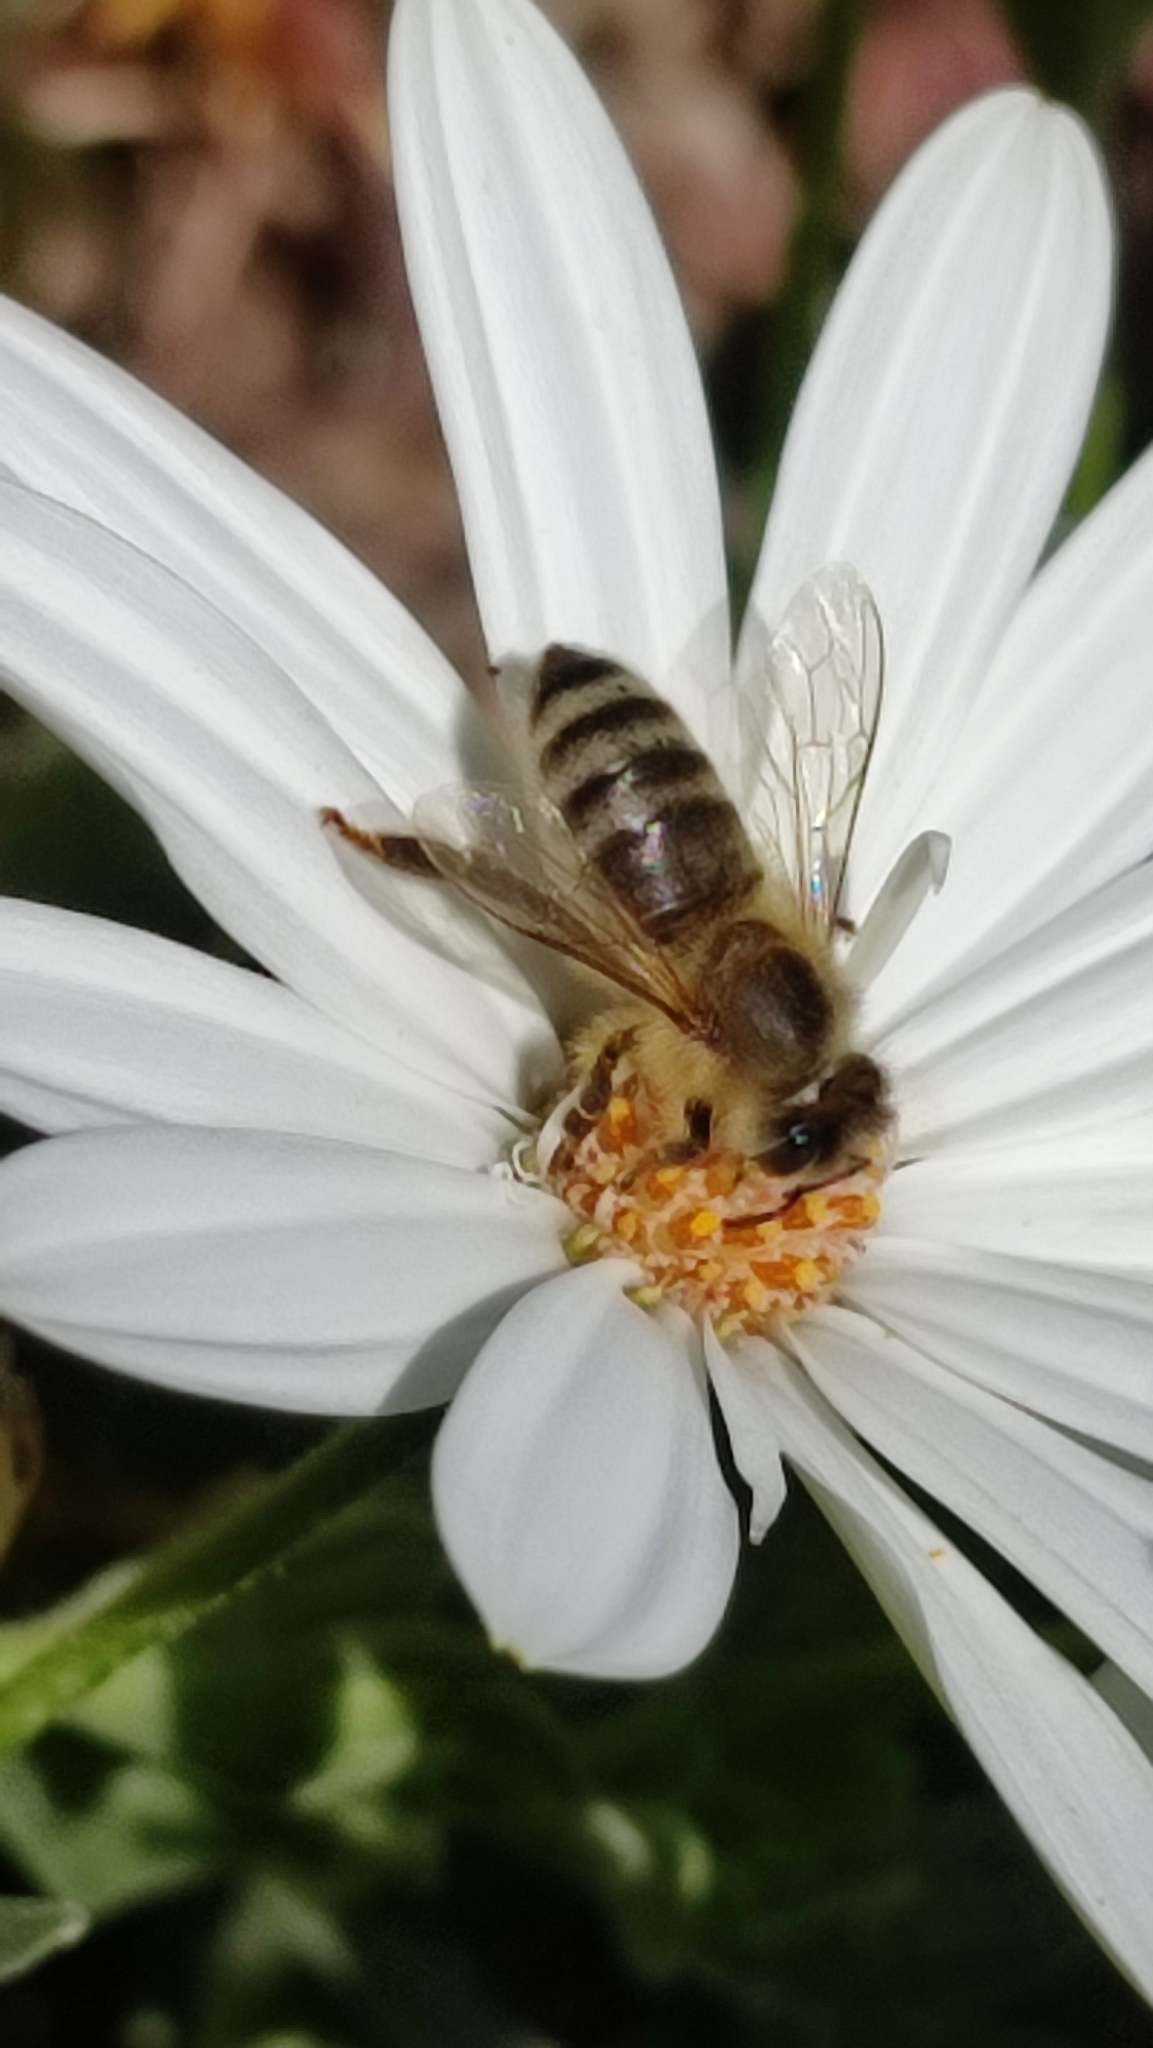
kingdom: Animalia
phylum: Arthropoda
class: Insecta
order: Hymenoptera
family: Apidae
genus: Apis
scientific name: Apis mellifera
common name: Honey bee
